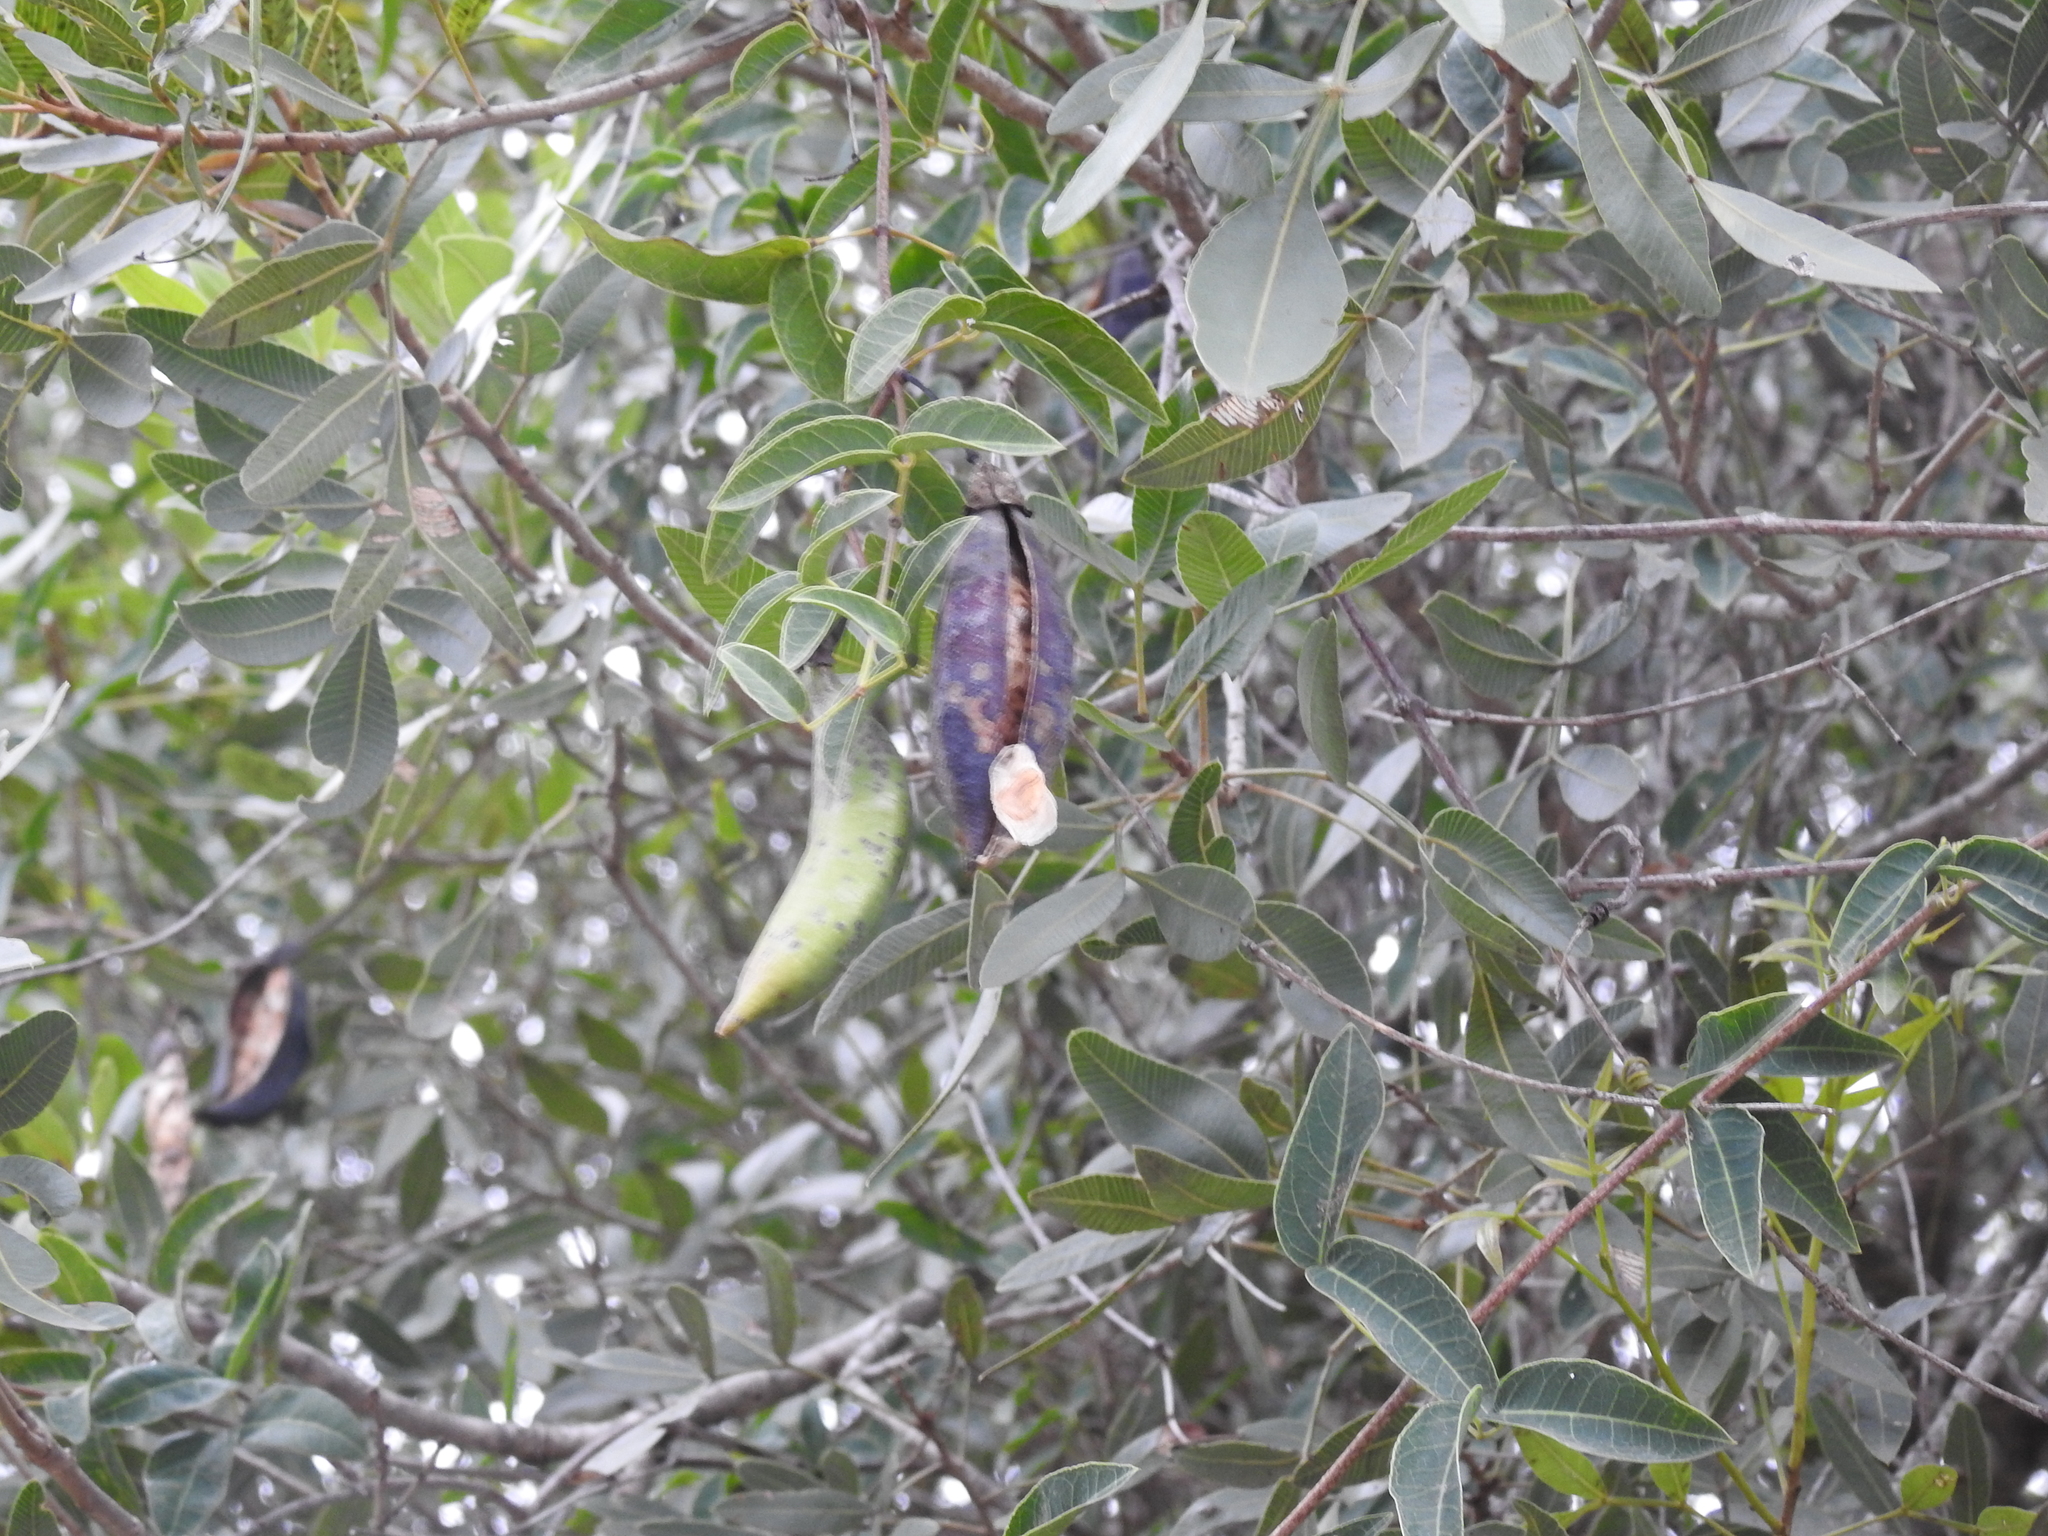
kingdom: Plantae
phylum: Tracheophyta
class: Magnoliopsida
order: Lamiales
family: Bignoniaceae
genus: Dolichandra
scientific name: Dolichandra cynanchoides
